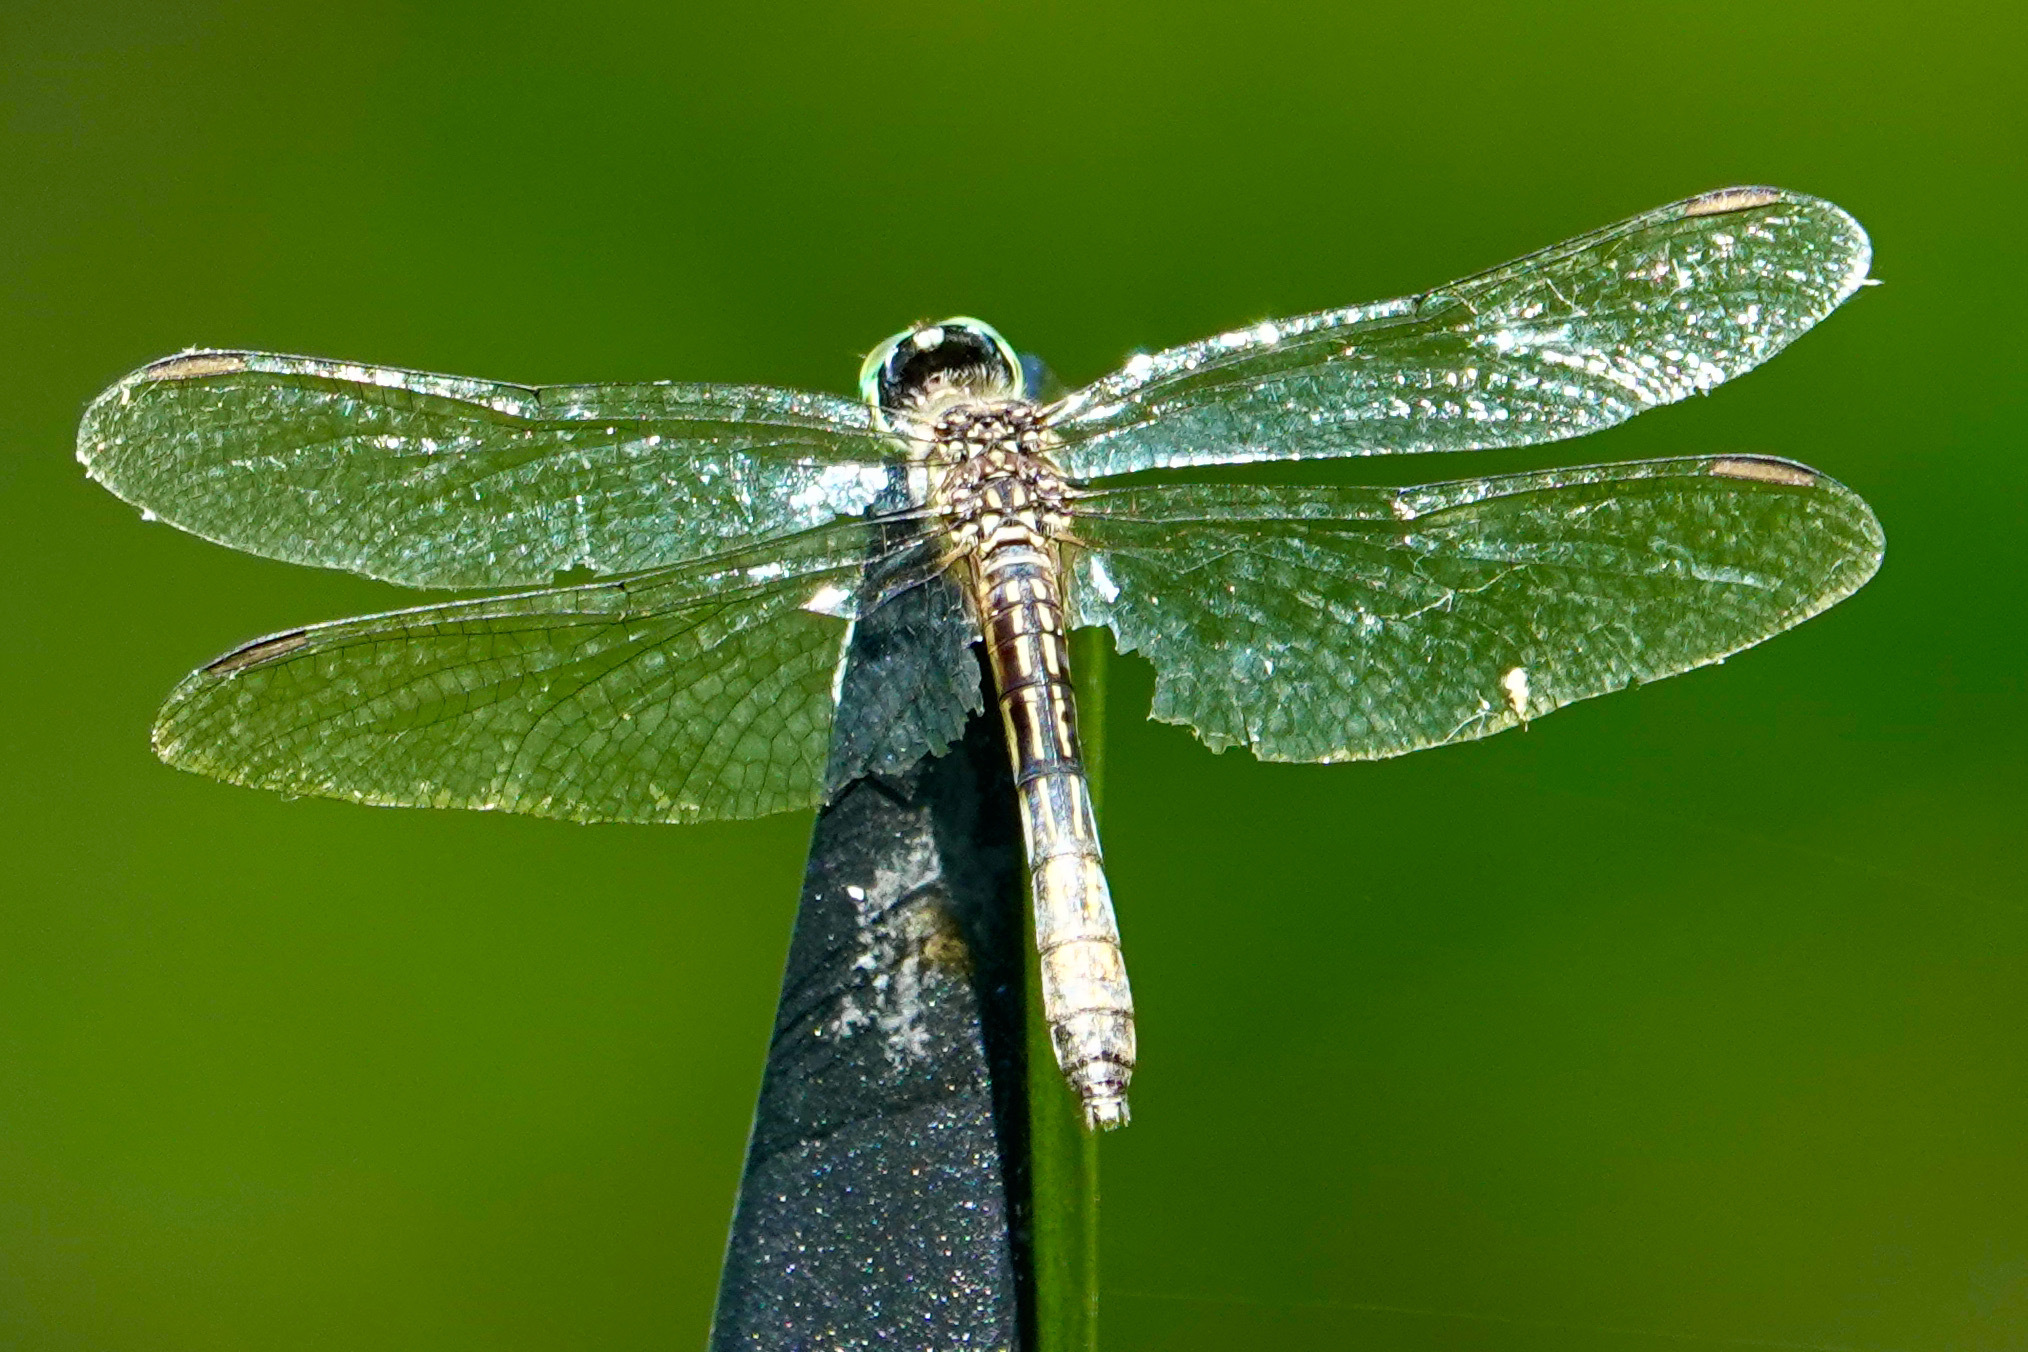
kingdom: Animalia
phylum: Arthropoda
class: Insecta
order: Odonata
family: Libellulidae
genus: Pachydiplax
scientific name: Pachydiplax longipennis
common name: Blue dasher
